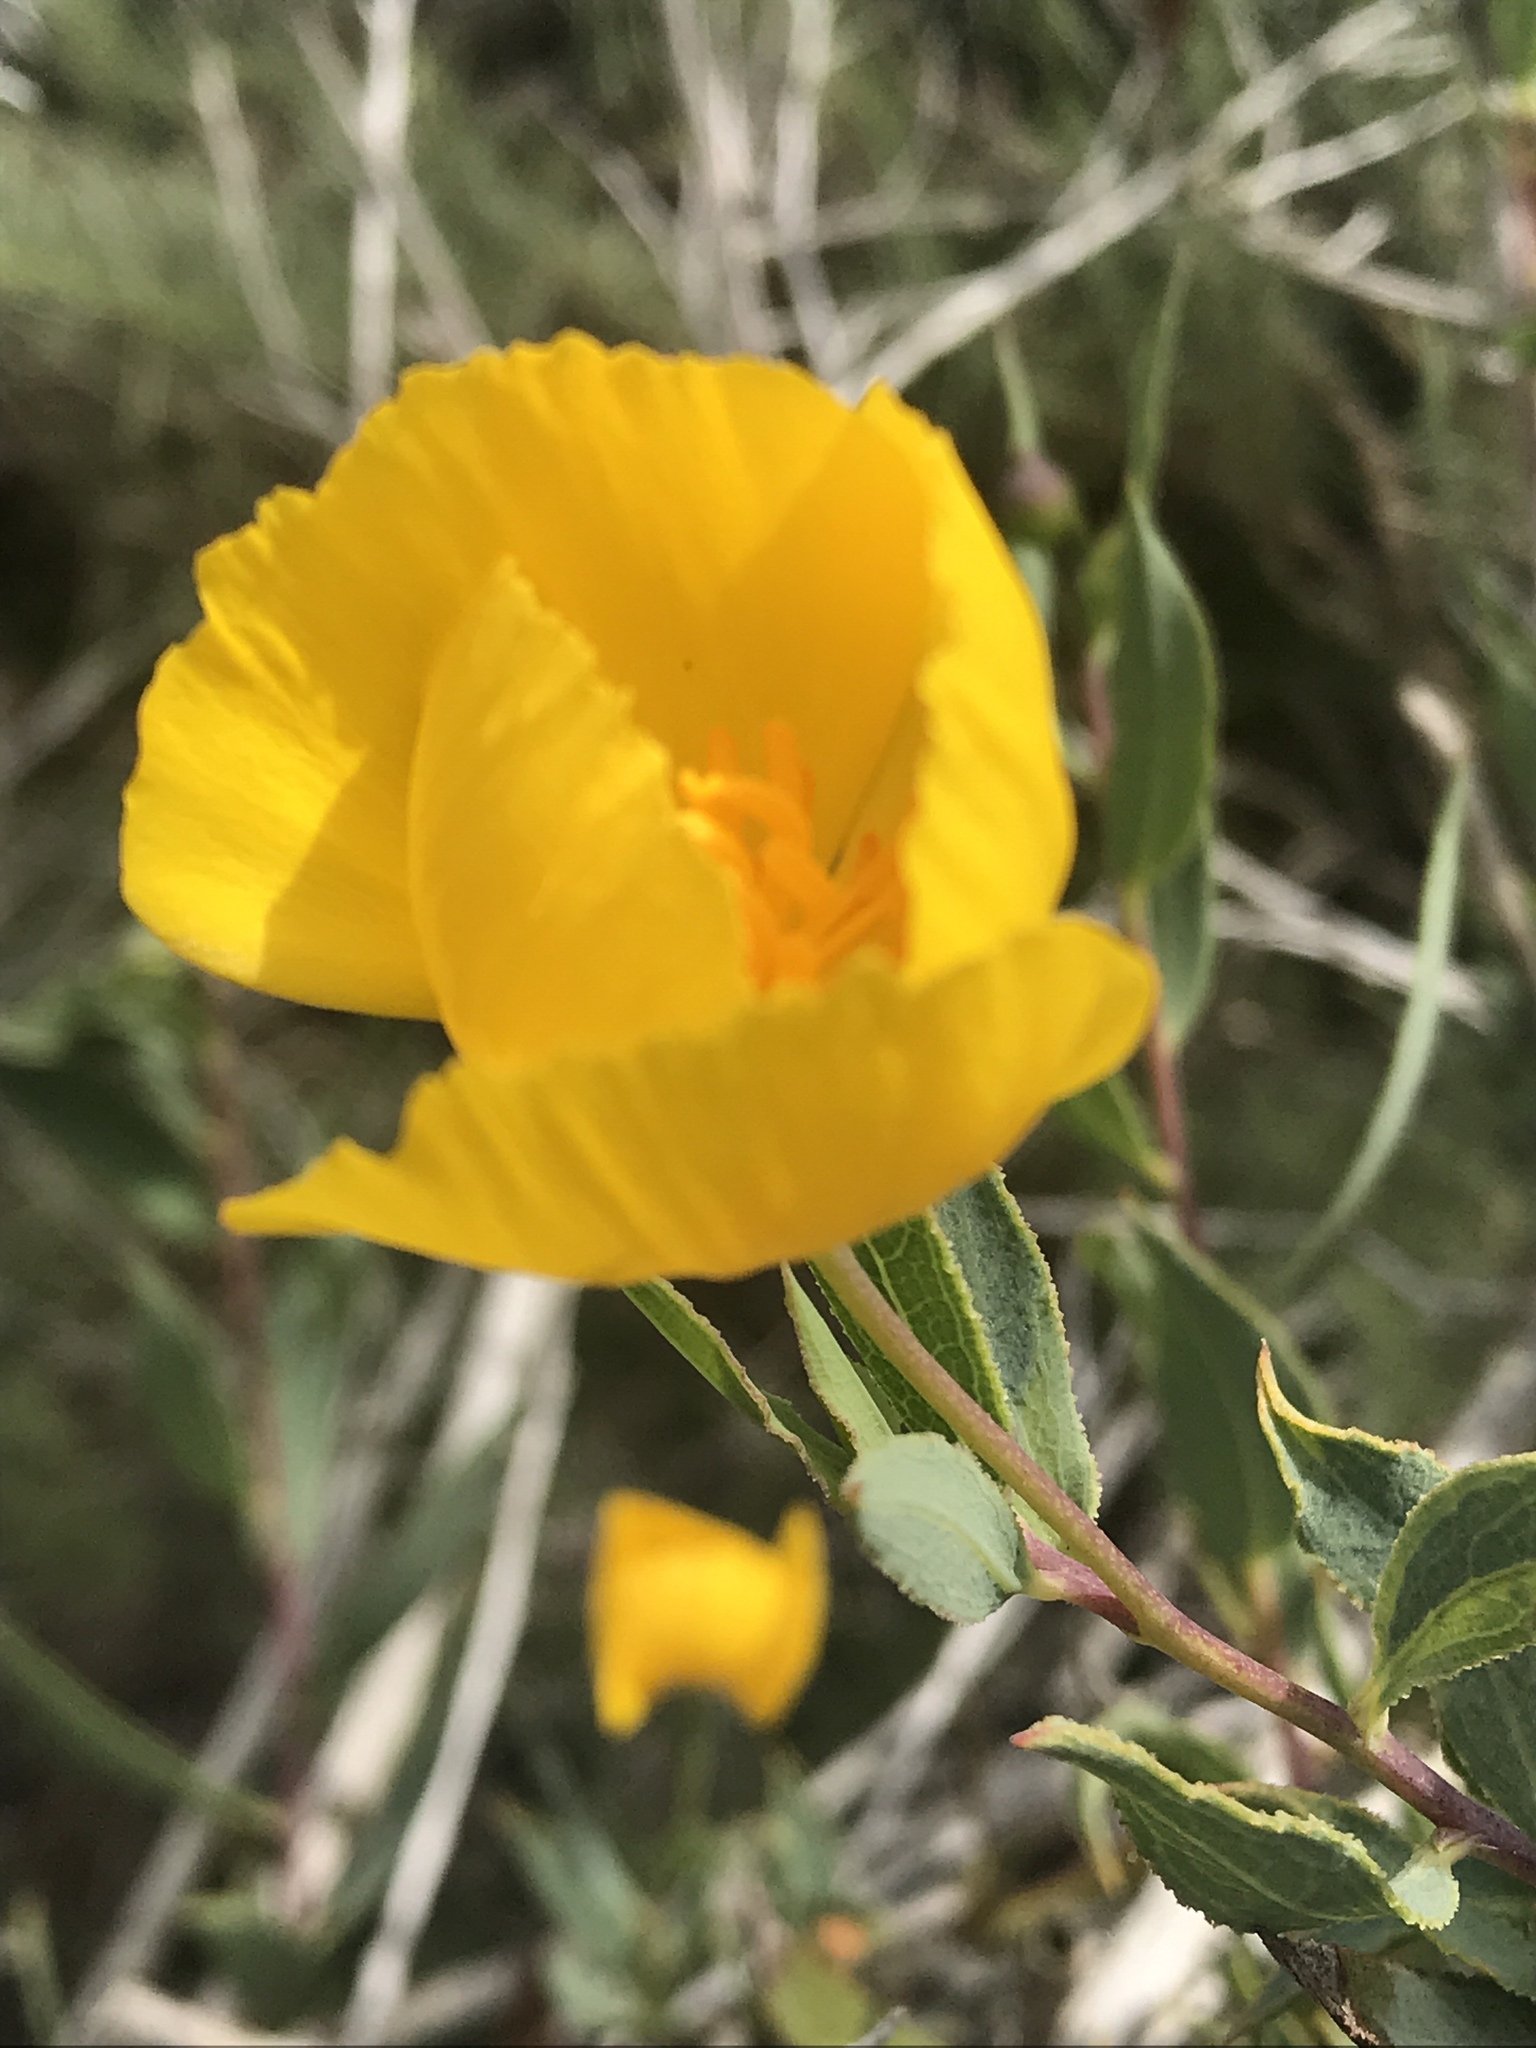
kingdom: Plantae
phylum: Tracheophyta
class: Magnoliopsida
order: Ranunculales
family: Papaveraceae
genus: Dendromecon
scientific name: Dendromecon rigida
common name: Tree poppy
